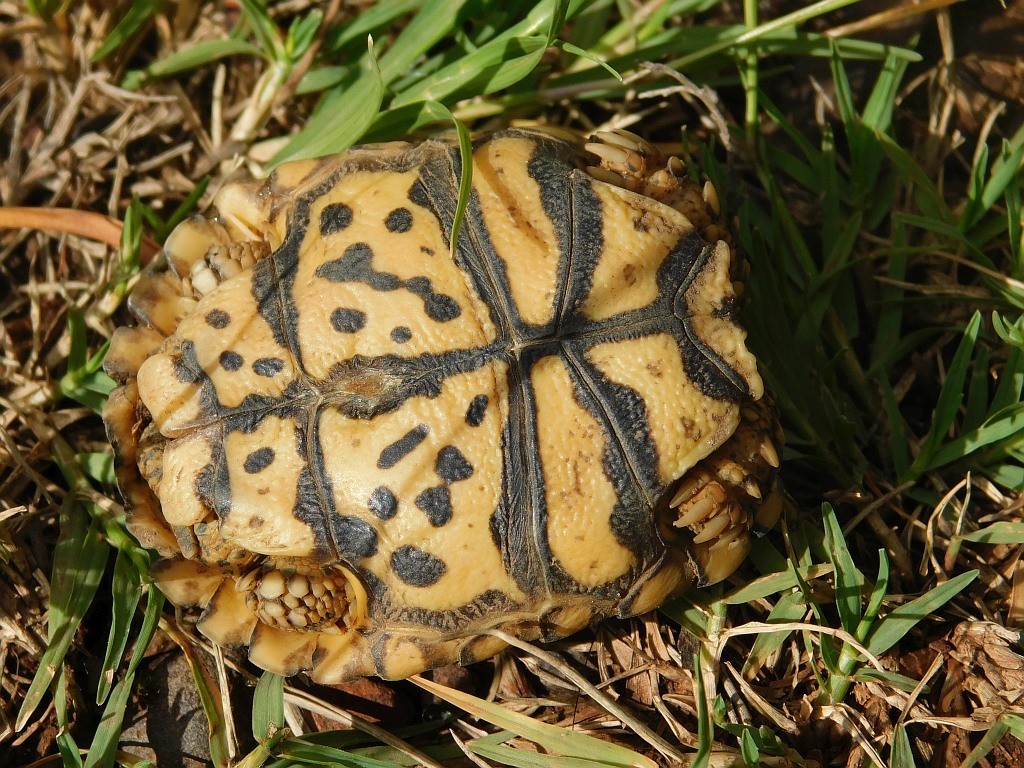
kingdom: Animalia
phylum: Chordata
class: Testudines
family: Testudinidae
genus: Stigmochelys
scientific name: Stigmochelys pardalis
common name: Leopard tortoise
